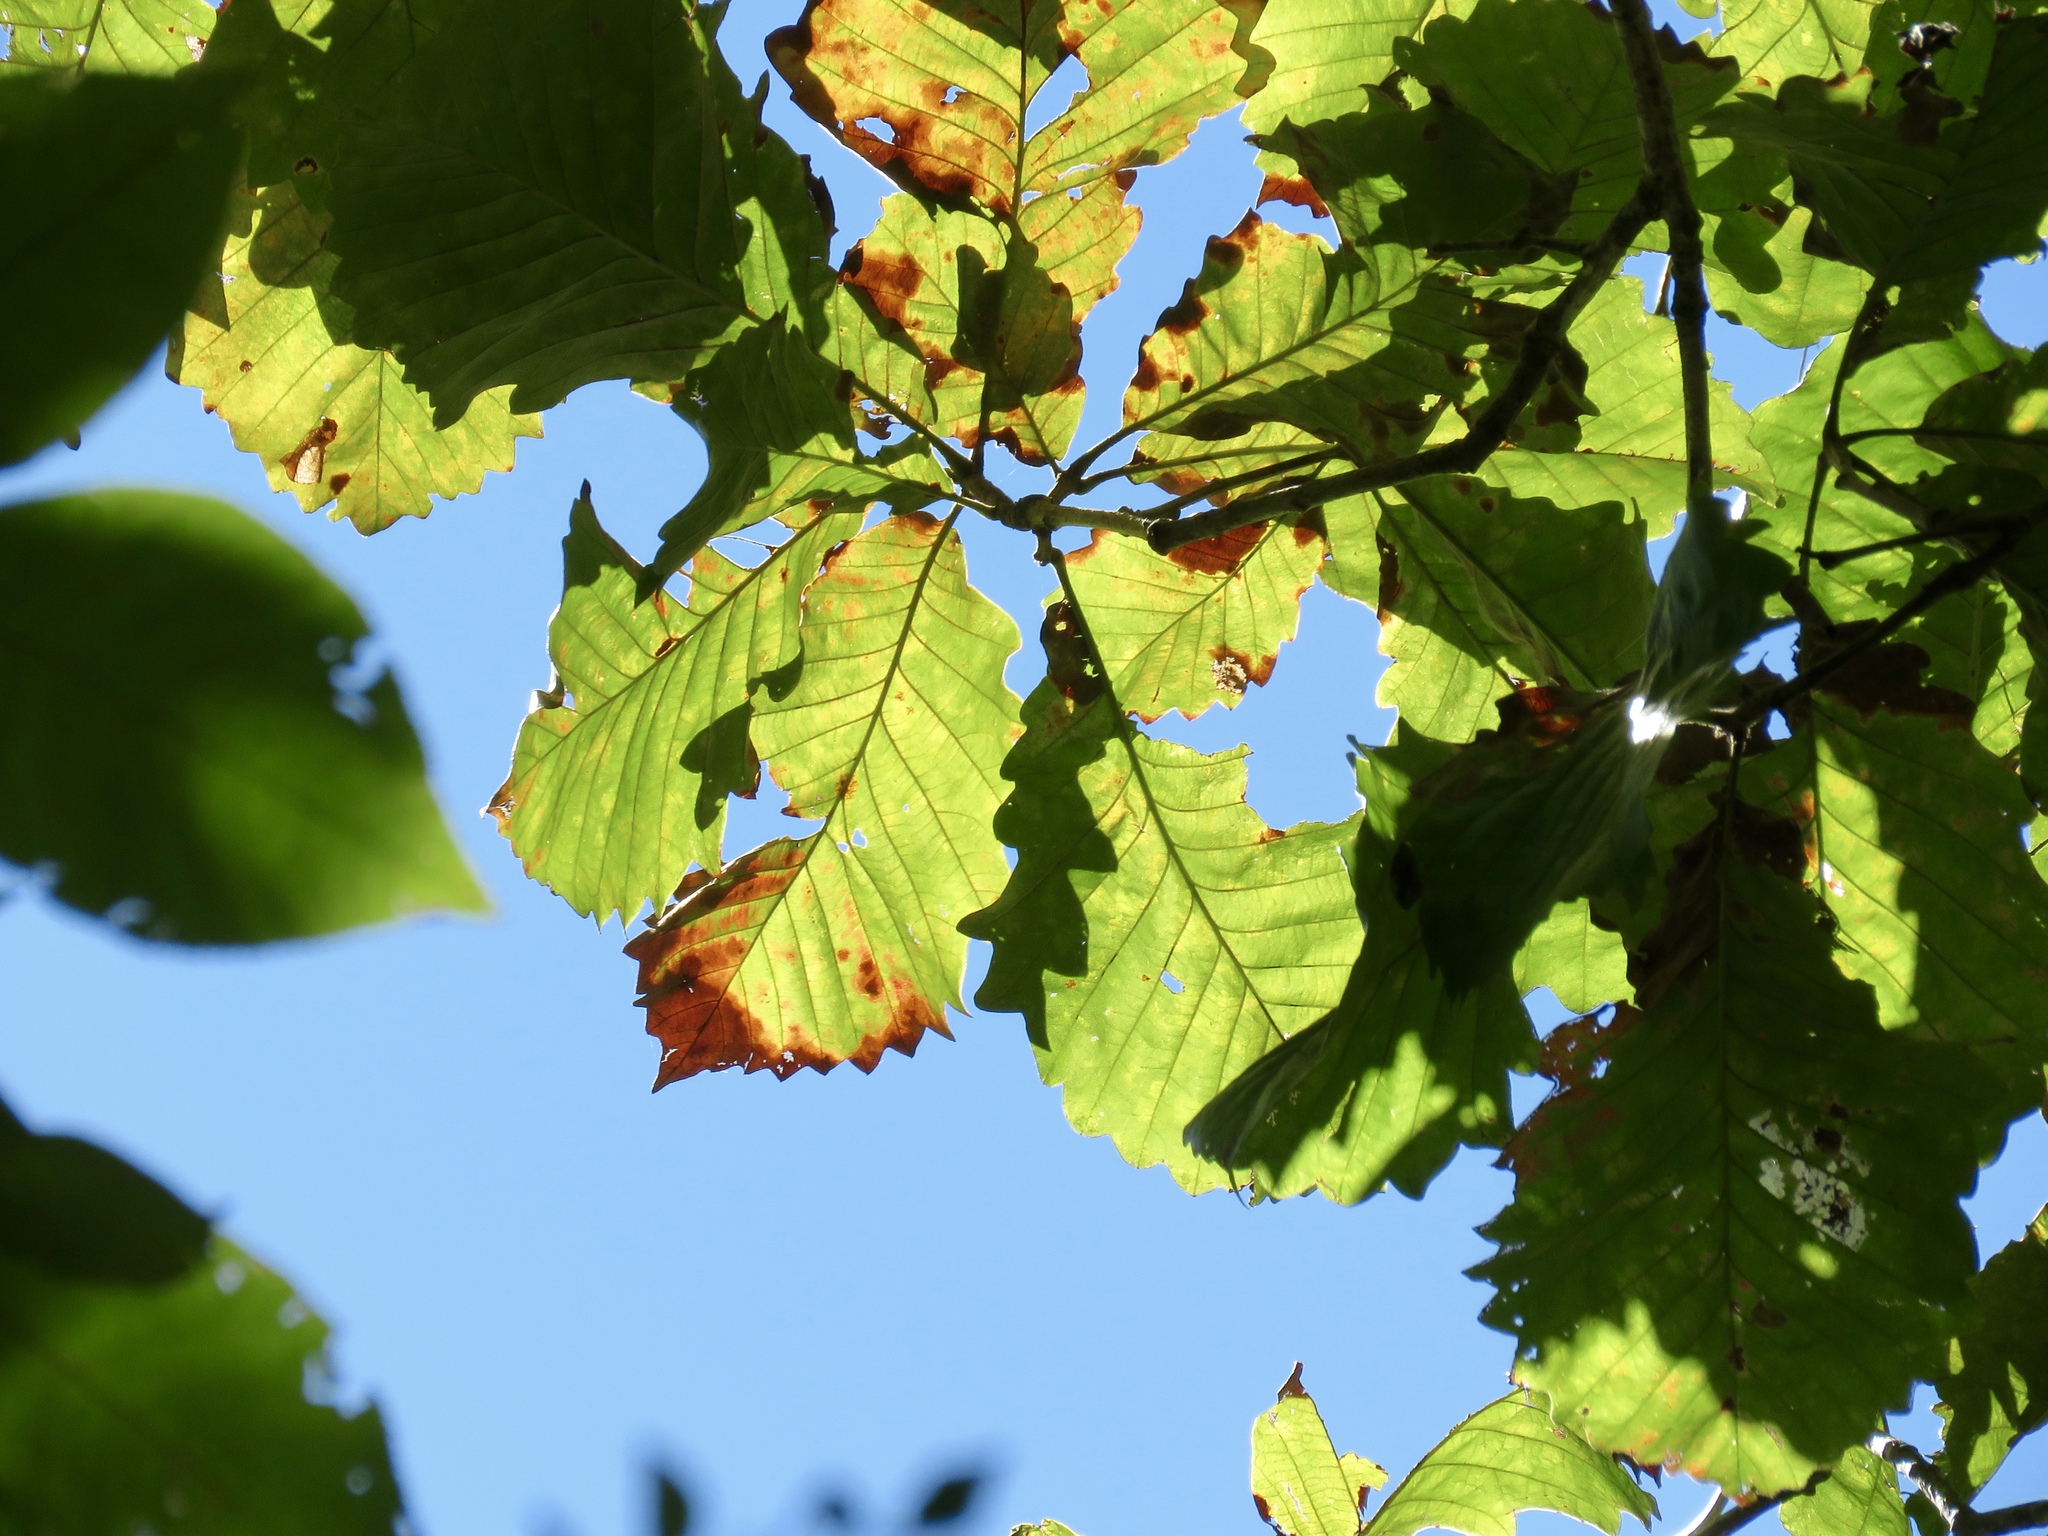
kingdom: Plantae
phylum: Tracheophyta
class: Magnoliopsida
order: Fagales
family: Fagaceae
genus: Quercus
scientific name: Quercus michauxii
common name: Swamp chestnut oak
